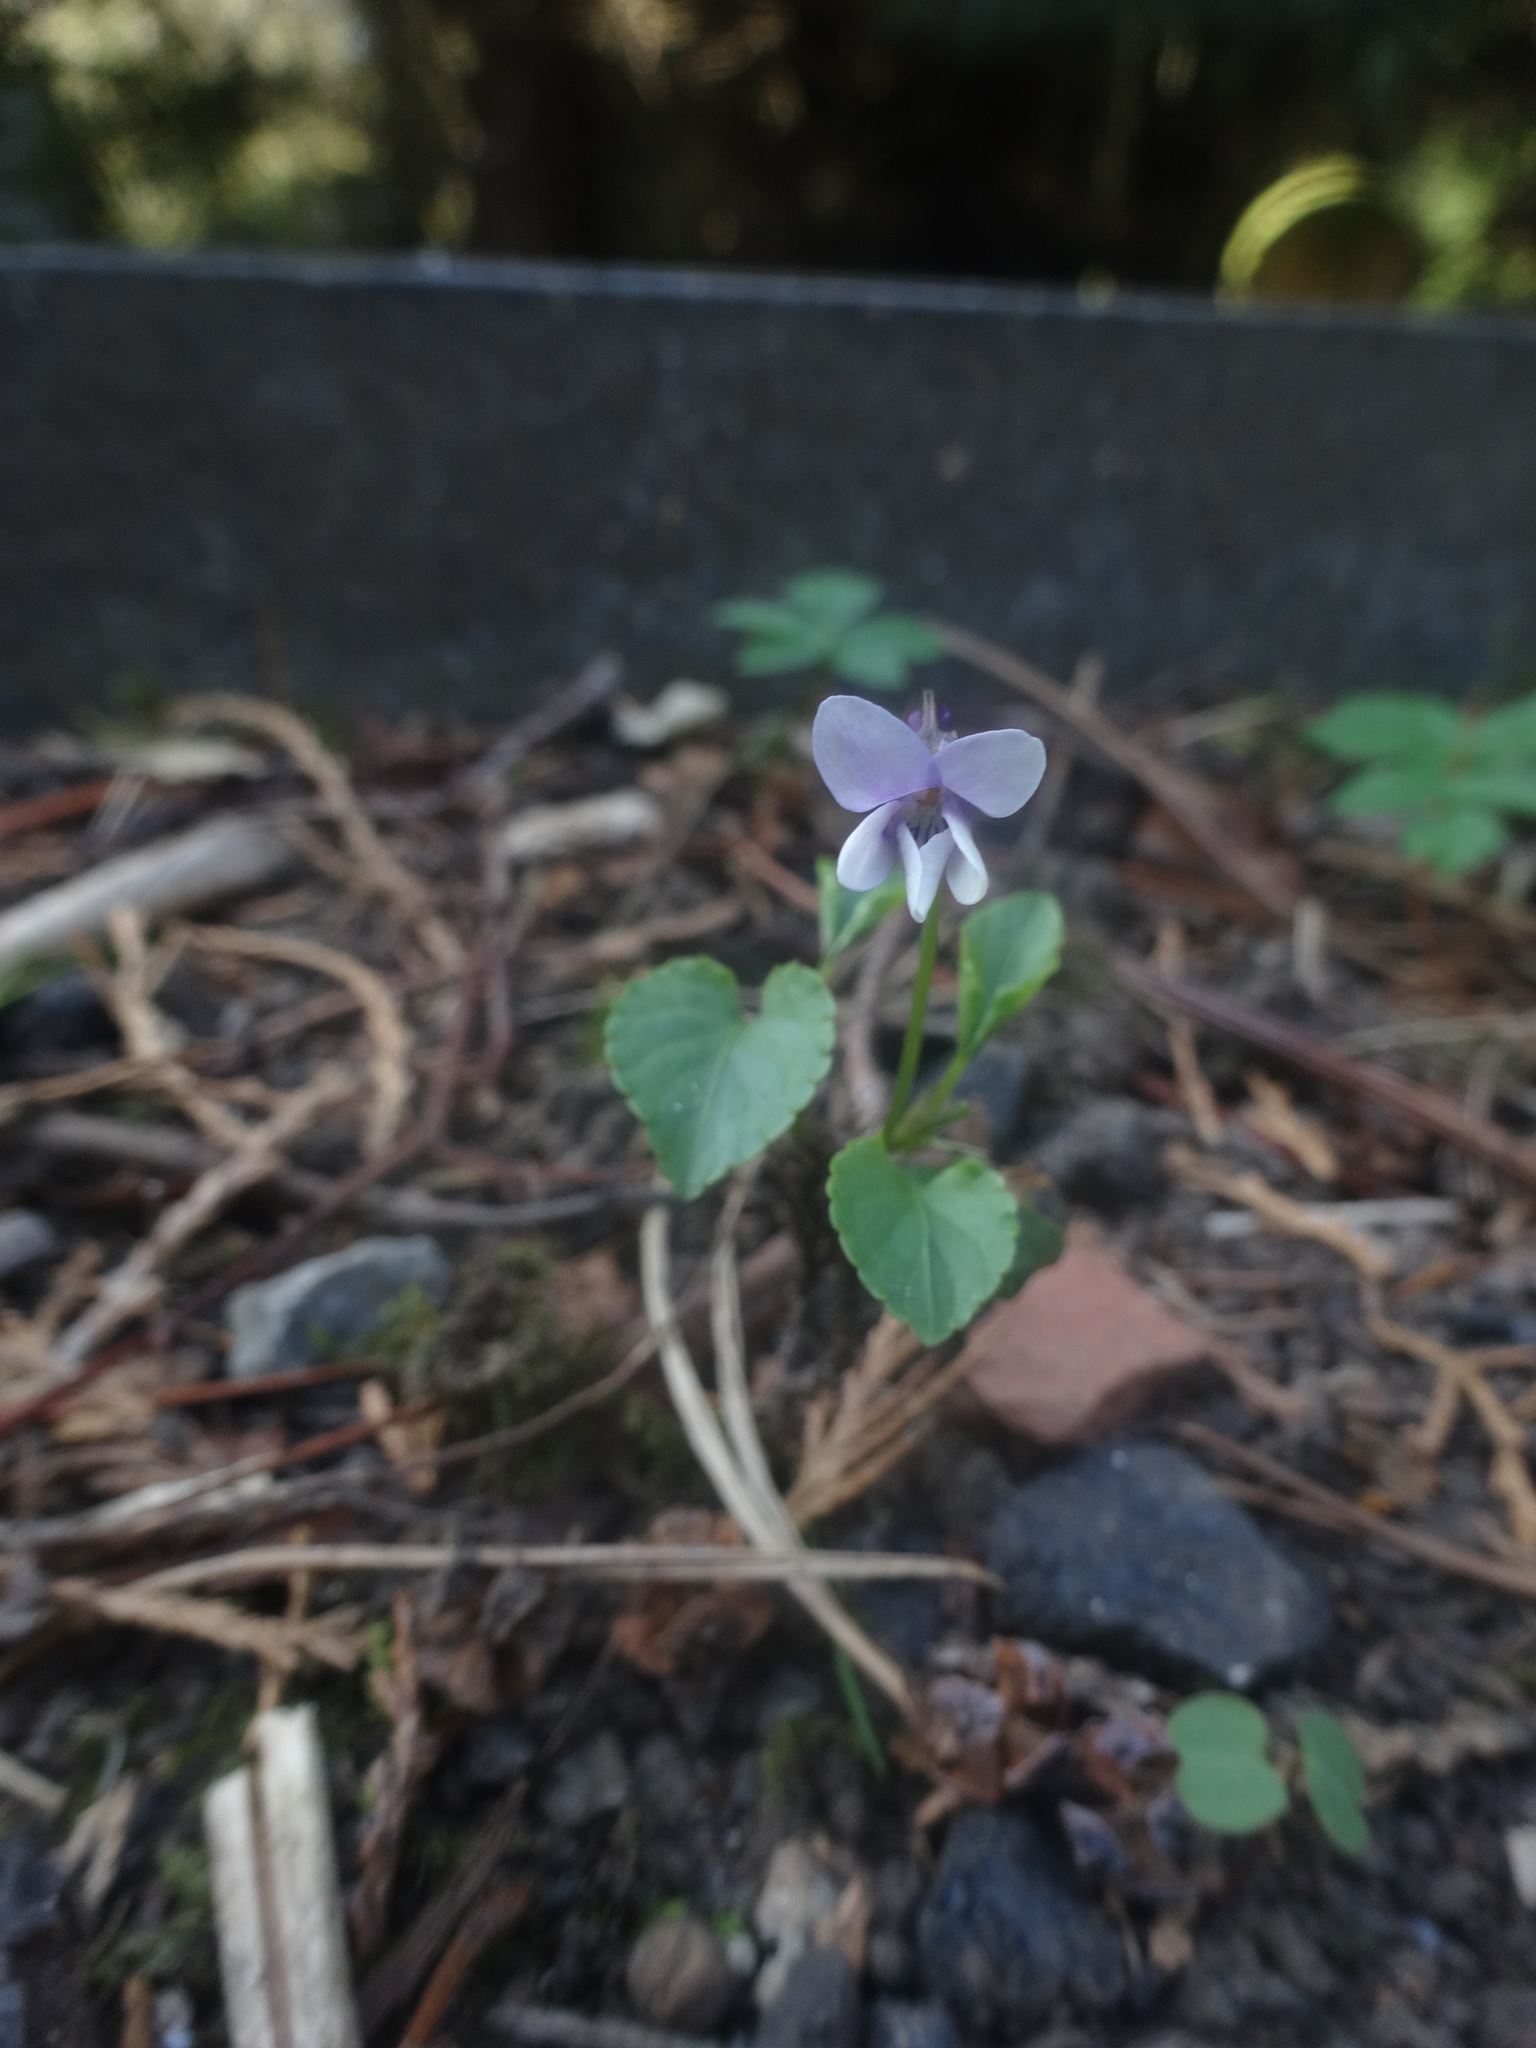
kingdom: Plantae
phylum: Tracheophyta
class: Magnoliopsida
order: Malpighiales
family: Violaceae
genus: Viola
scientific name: Viola reichenbachiana
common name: Early dog-violet
